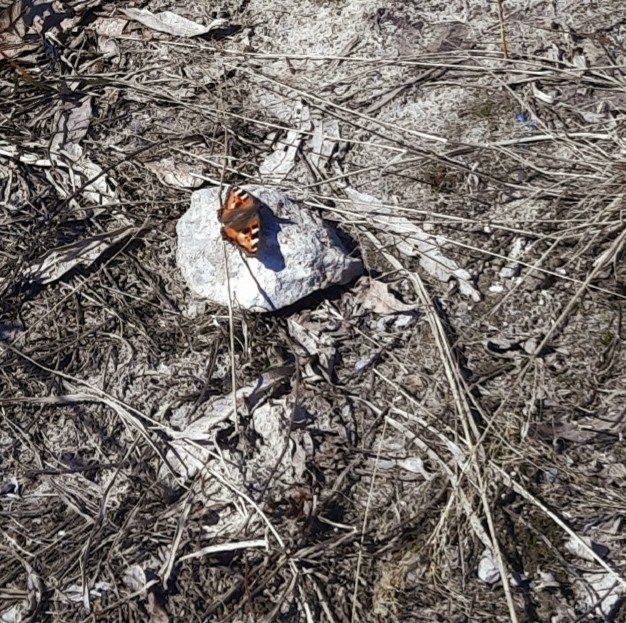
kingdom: Animalia
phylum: Arthropoda
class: Insecta
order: Lepidoptera
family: Nymphalidae
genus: Aglais
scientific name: Aglais urticae
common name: Small tortoiseshell
